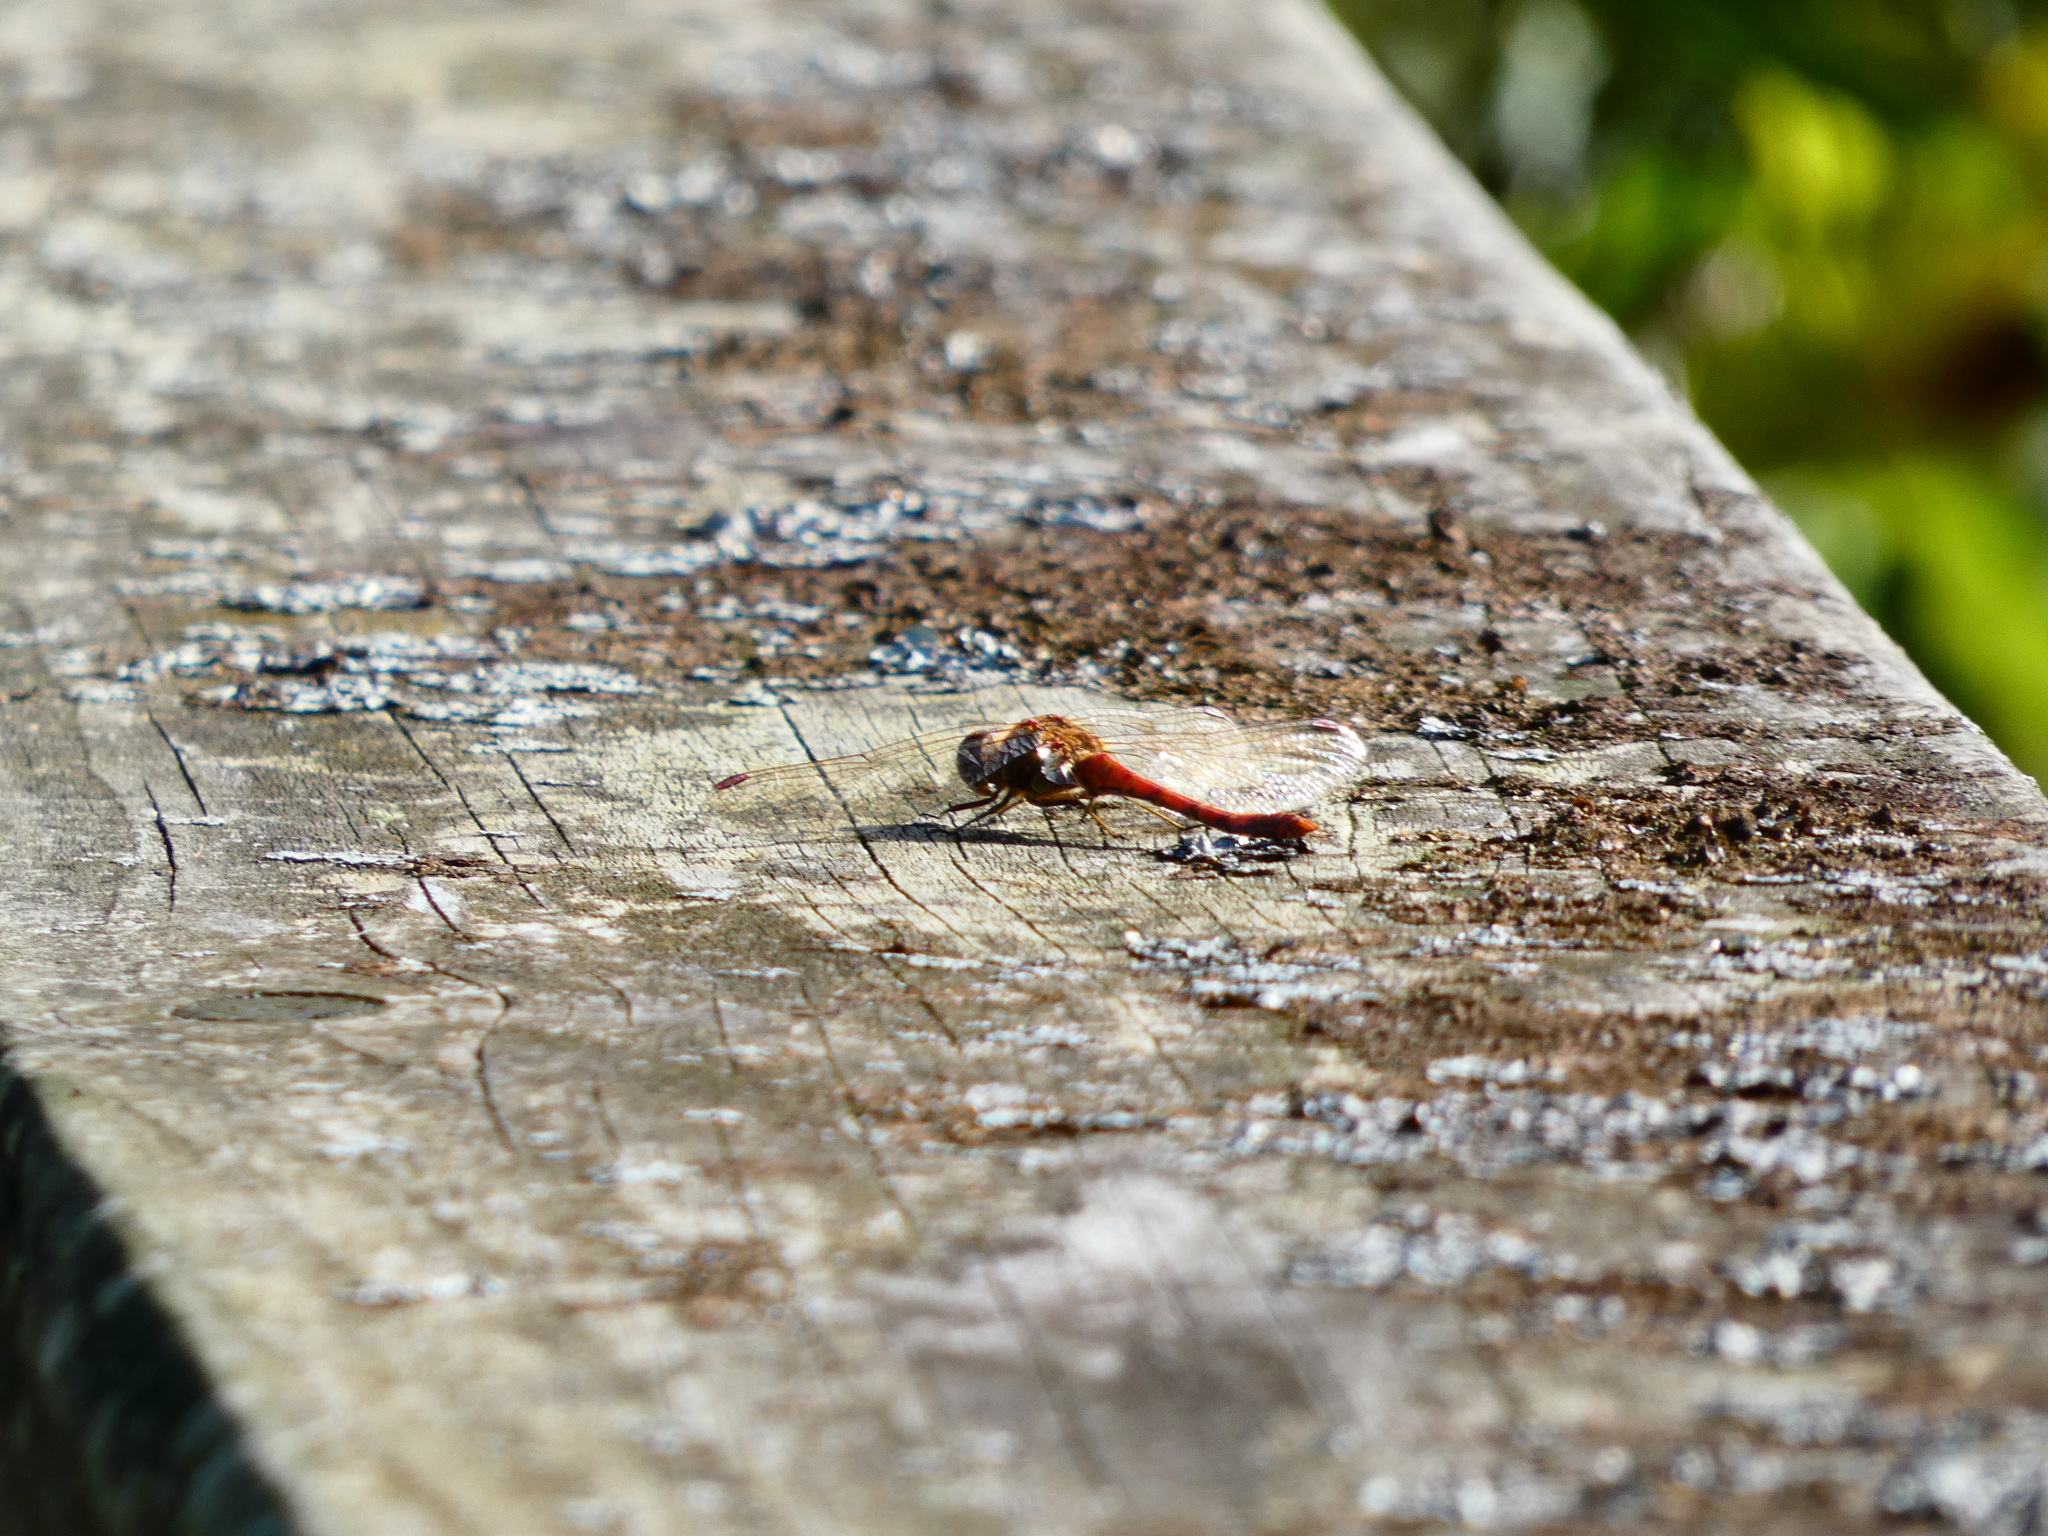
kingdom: Animalia
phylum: Arthropoda
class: Insecta
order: Odonata
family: Libellulidae
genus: Sympetrum
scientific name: Sympetrum striolatum
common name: Common darter
